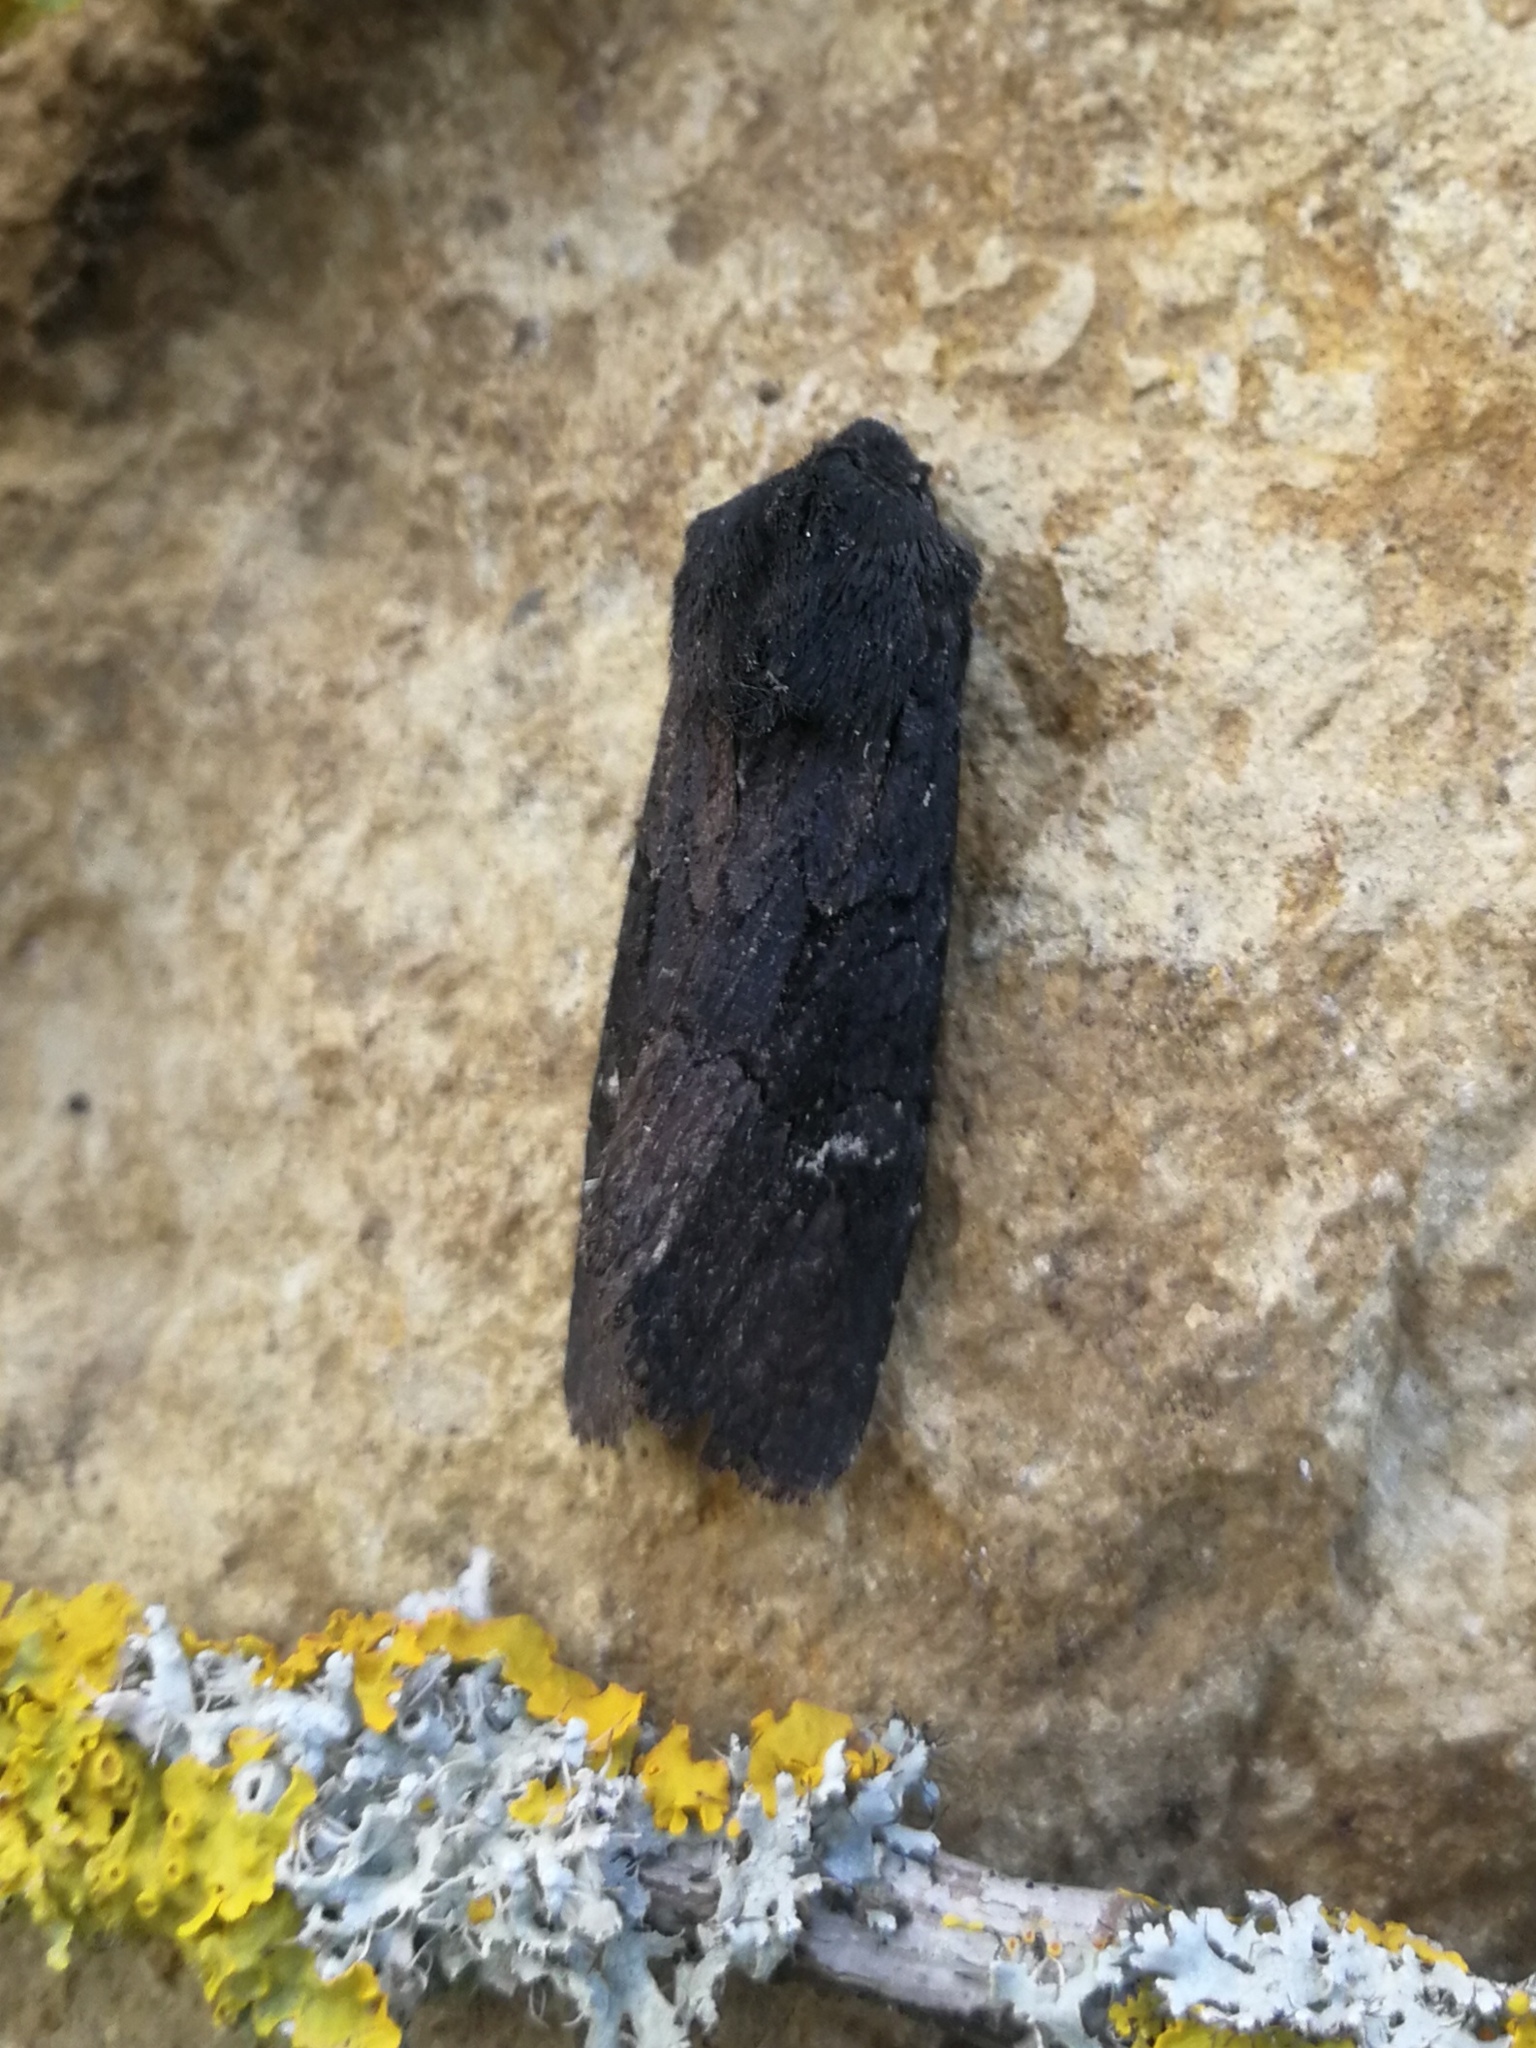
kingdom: Animalia
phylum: Arthropoda
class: Insecta
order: Lepidoptera
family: Noctuidae
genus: Aporophyla
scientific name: Aporophyla nigra
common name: Black rustic
